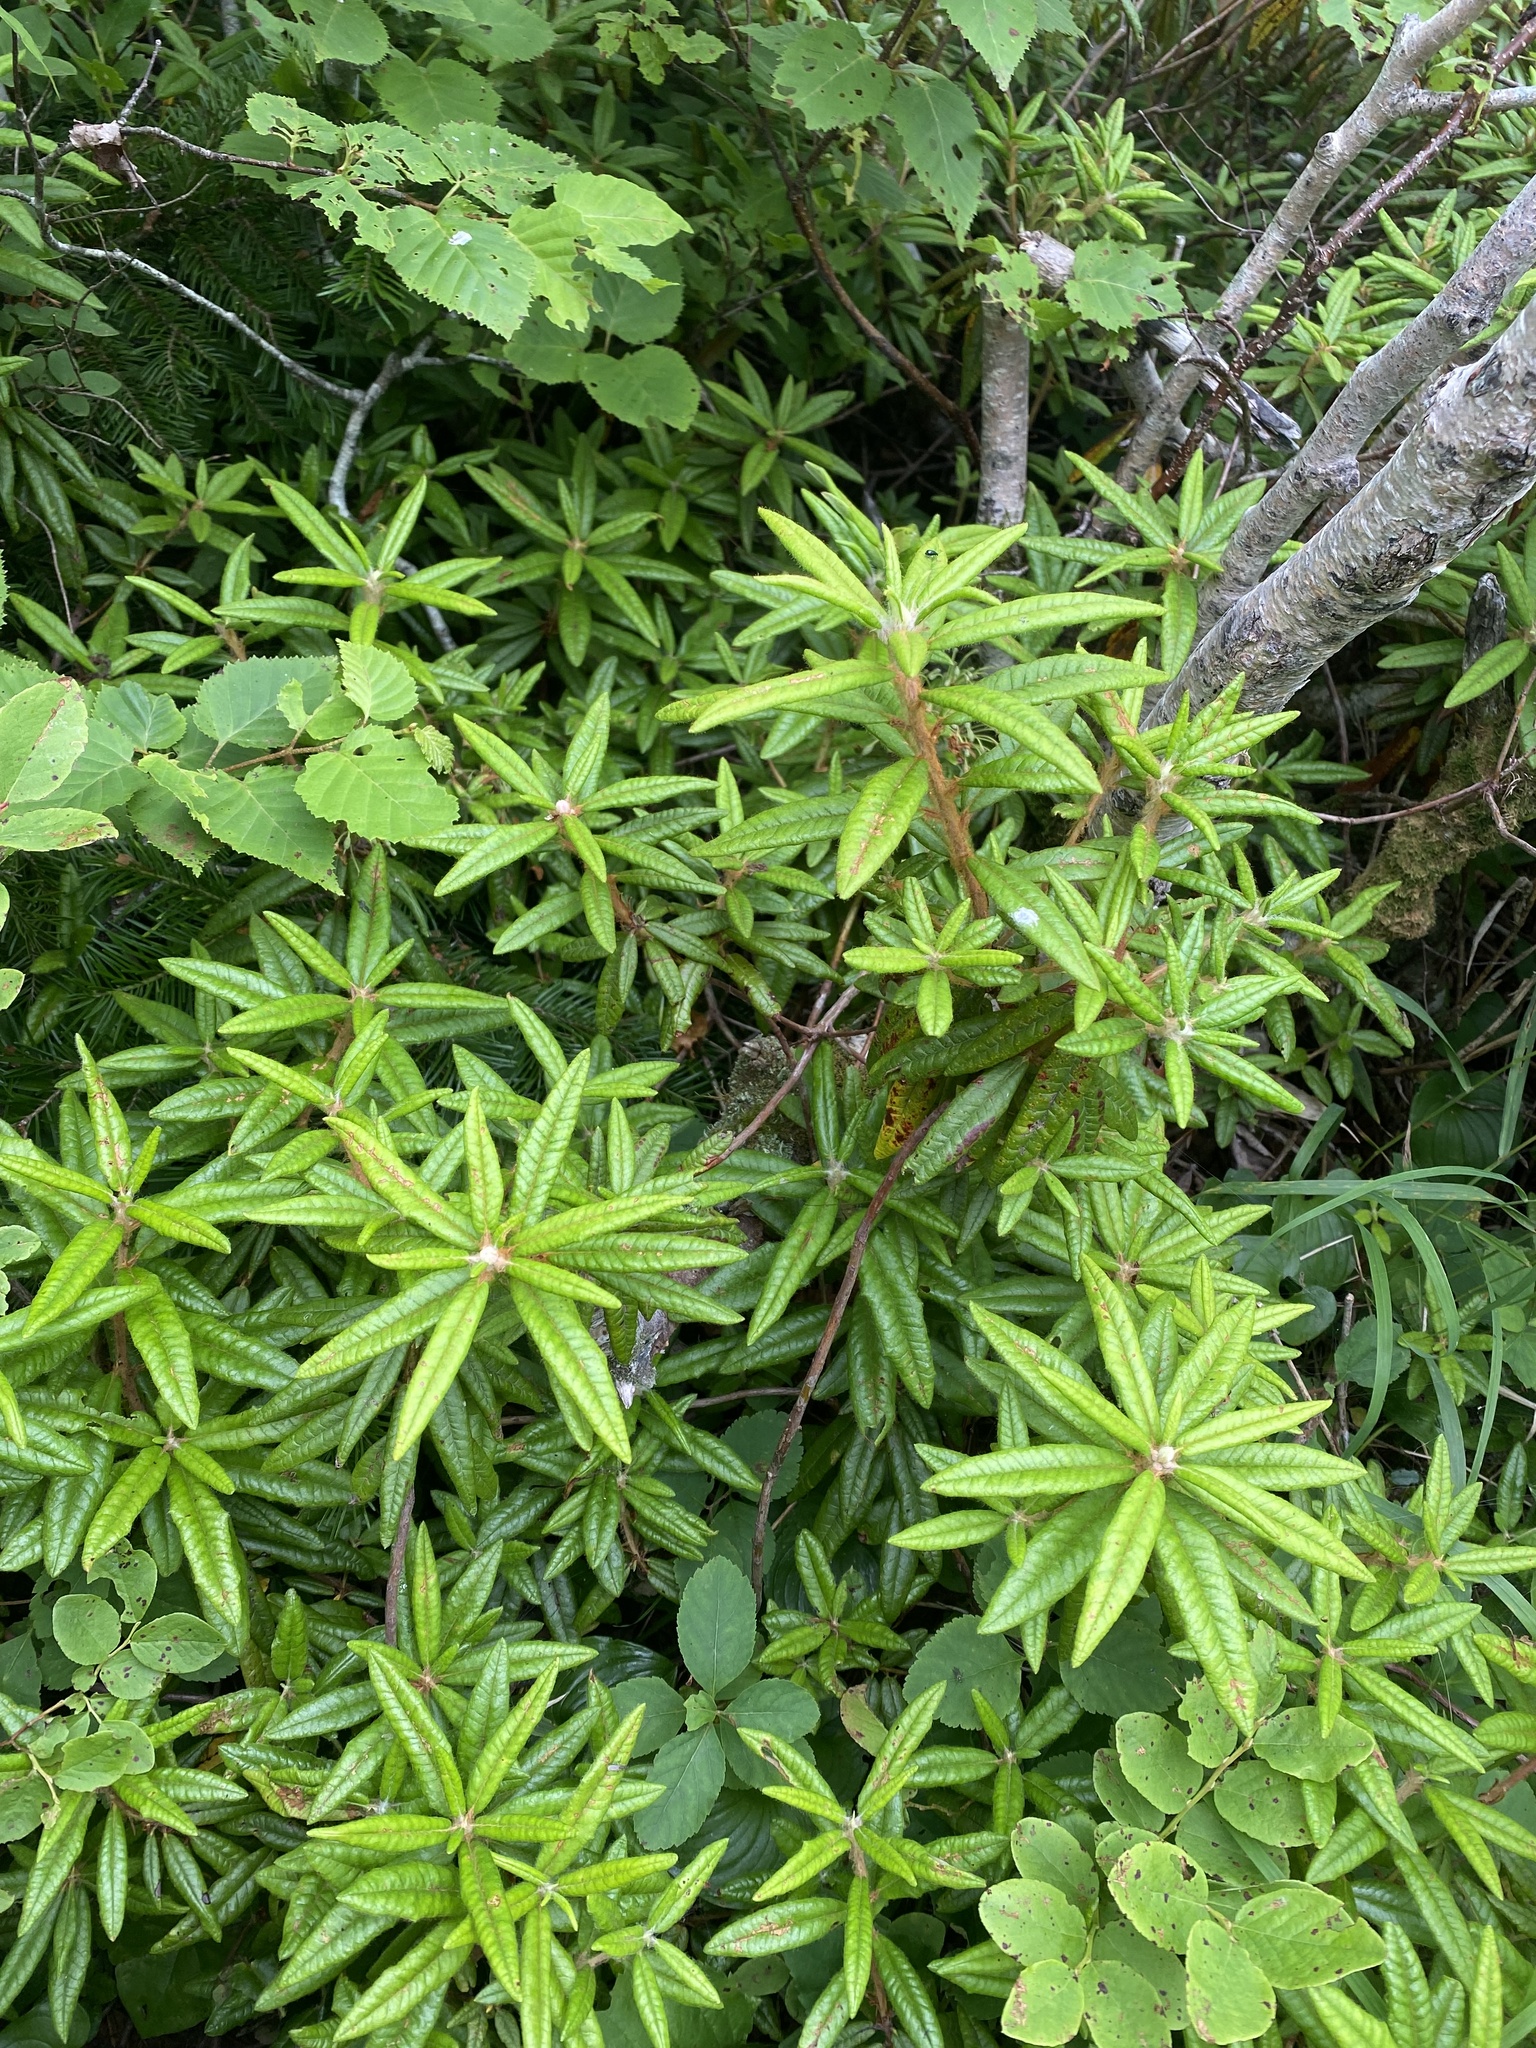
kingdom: Plantae
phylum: Tracheophyta
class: Magnoliopsida
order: Ericales
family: Ericaceae
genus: Rhododendron
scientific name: Rhododendron tomentosum
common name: Marsh labrador tea
